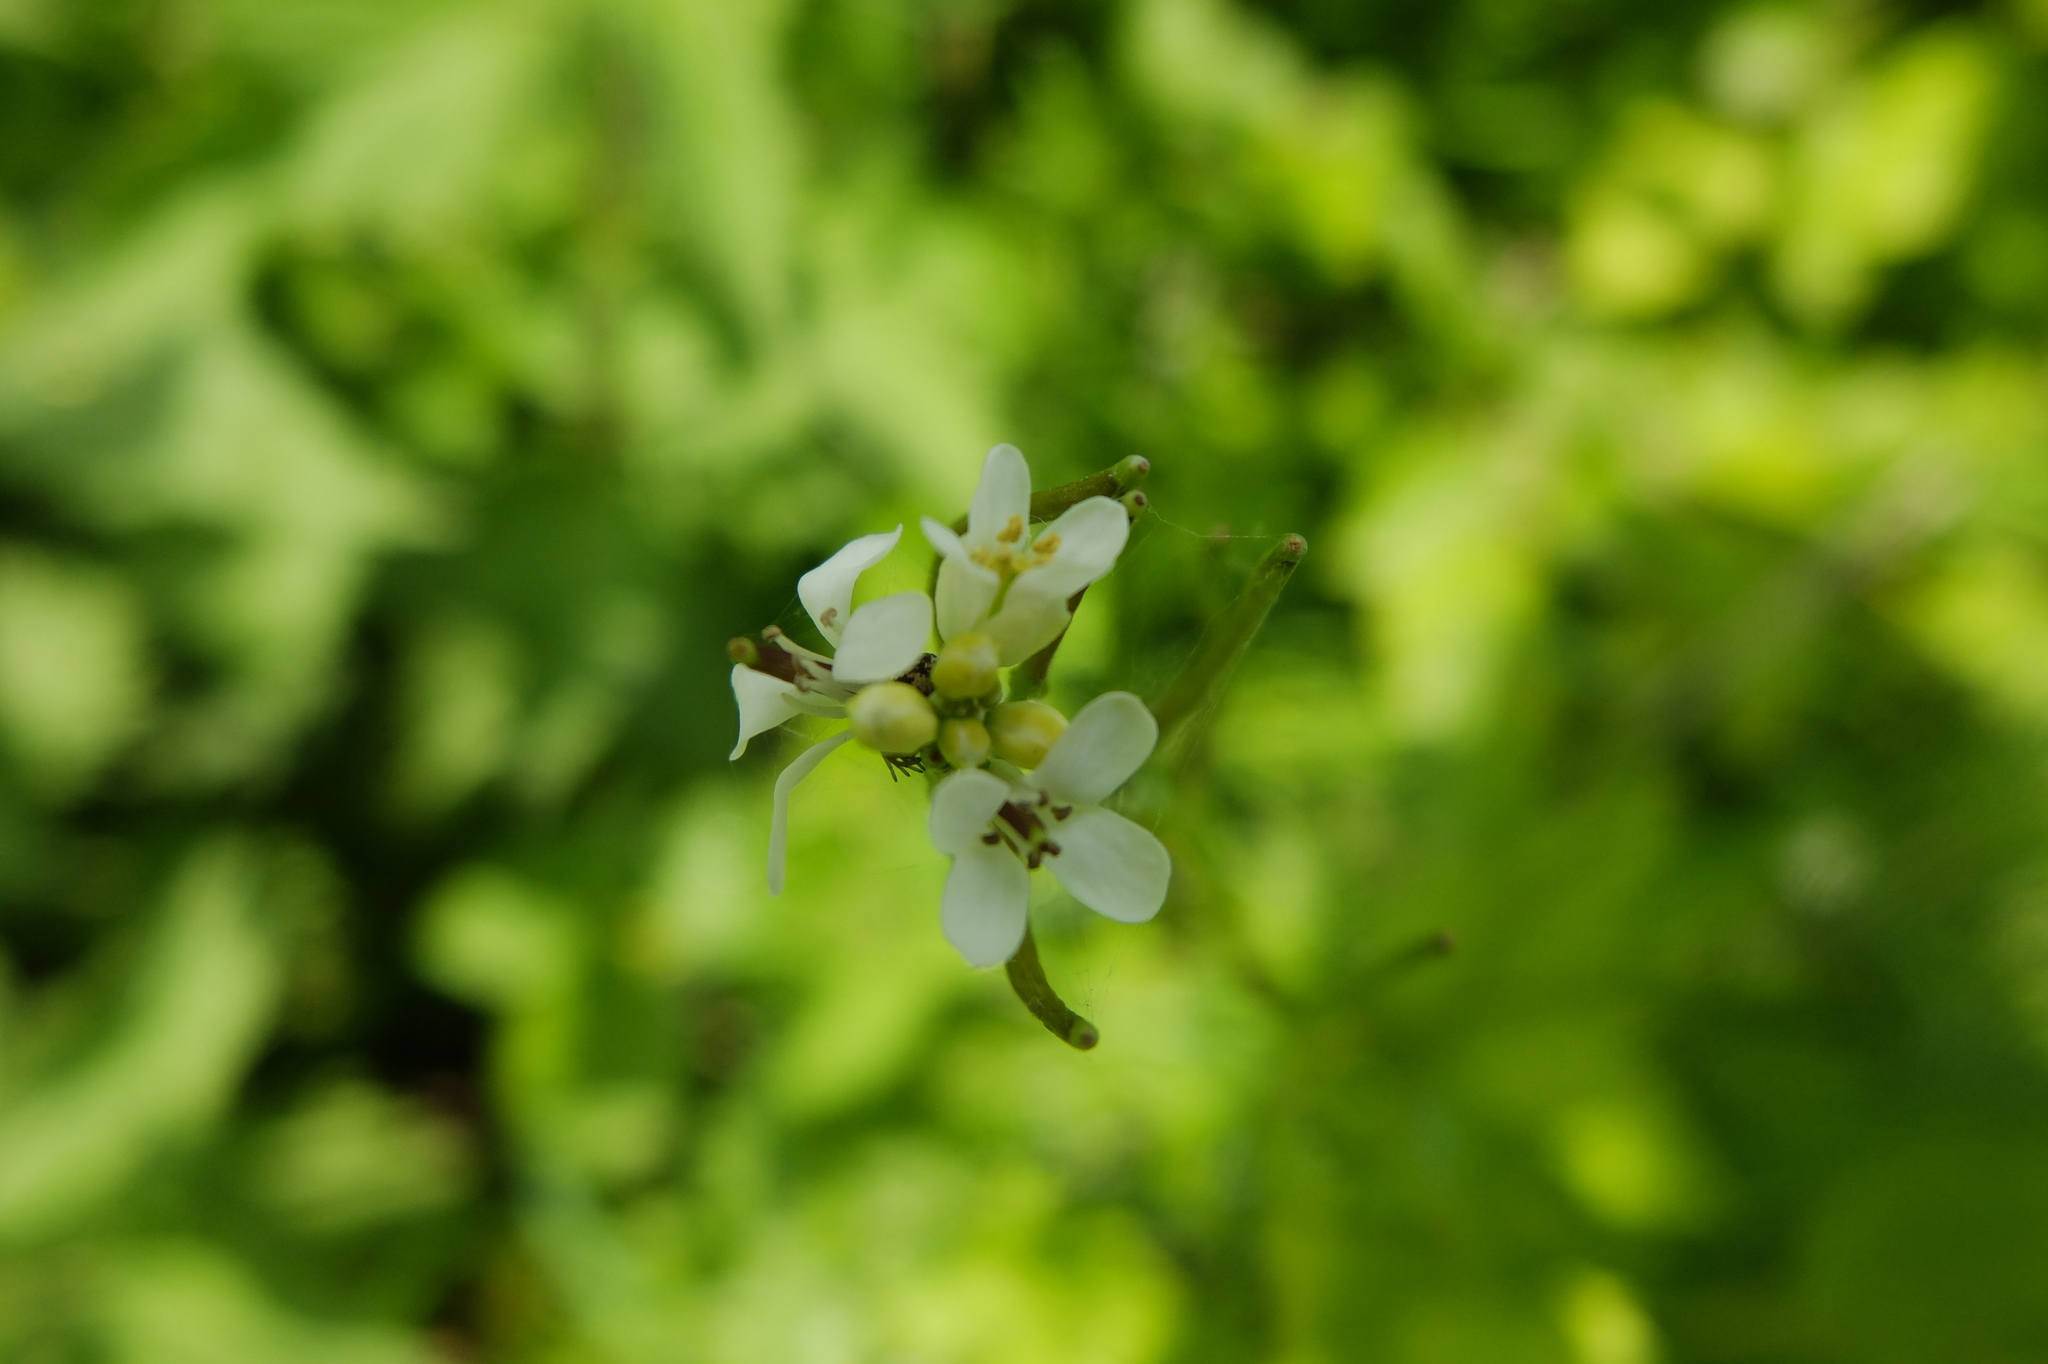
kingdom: Plantae
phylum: Tracheophyta
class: Magnoliopsida
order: Brassicales
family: Brassicaceae
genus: Alliaria
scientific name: Alliaria petiolata
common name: Garlic mustard
